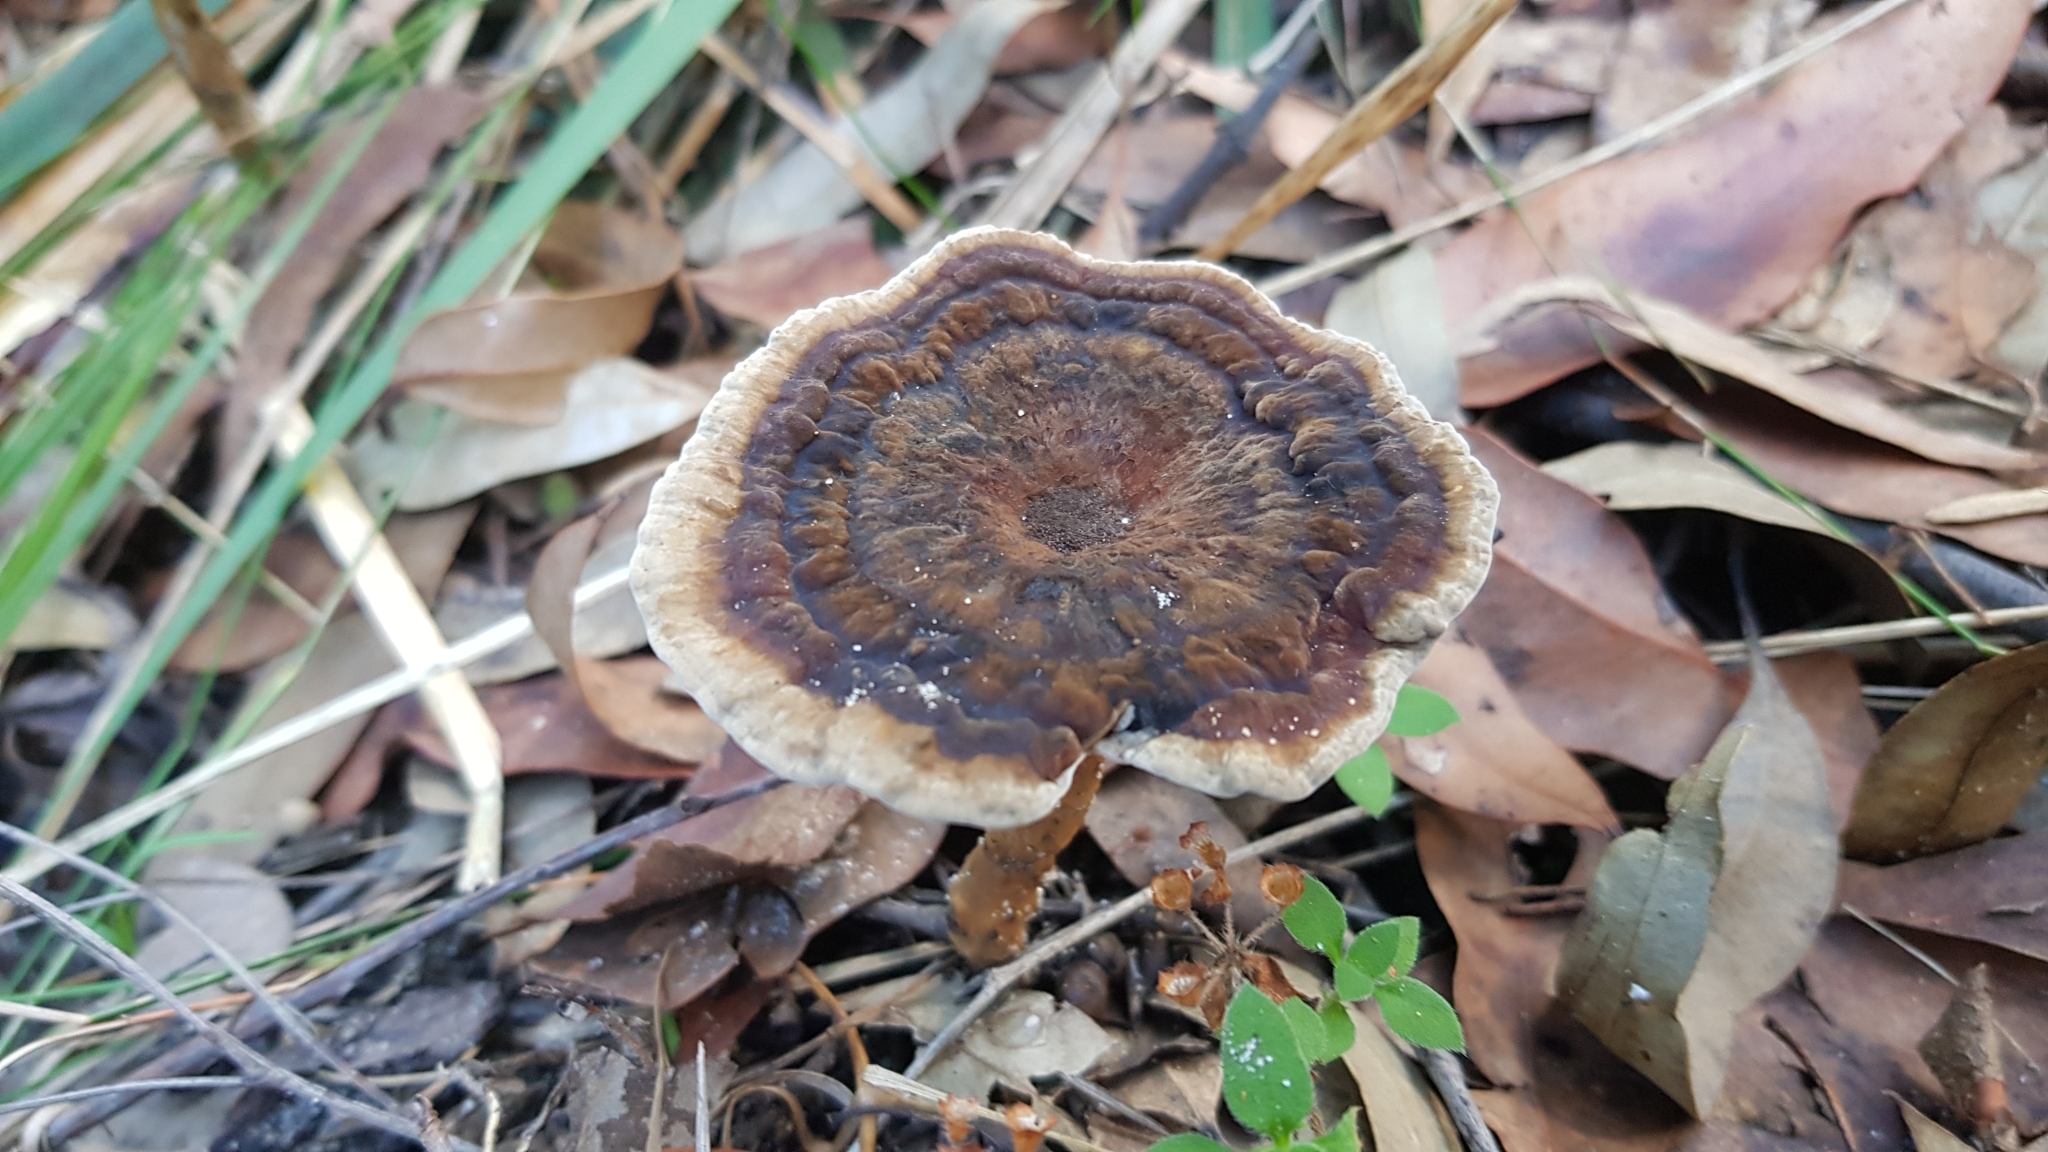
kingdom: Fungi
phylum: Basidiomycota
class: Agaricomycetes
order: Polyporales
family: Ganodermataceae
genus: Sanguinoderma
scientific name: Sanguinoderma rude
